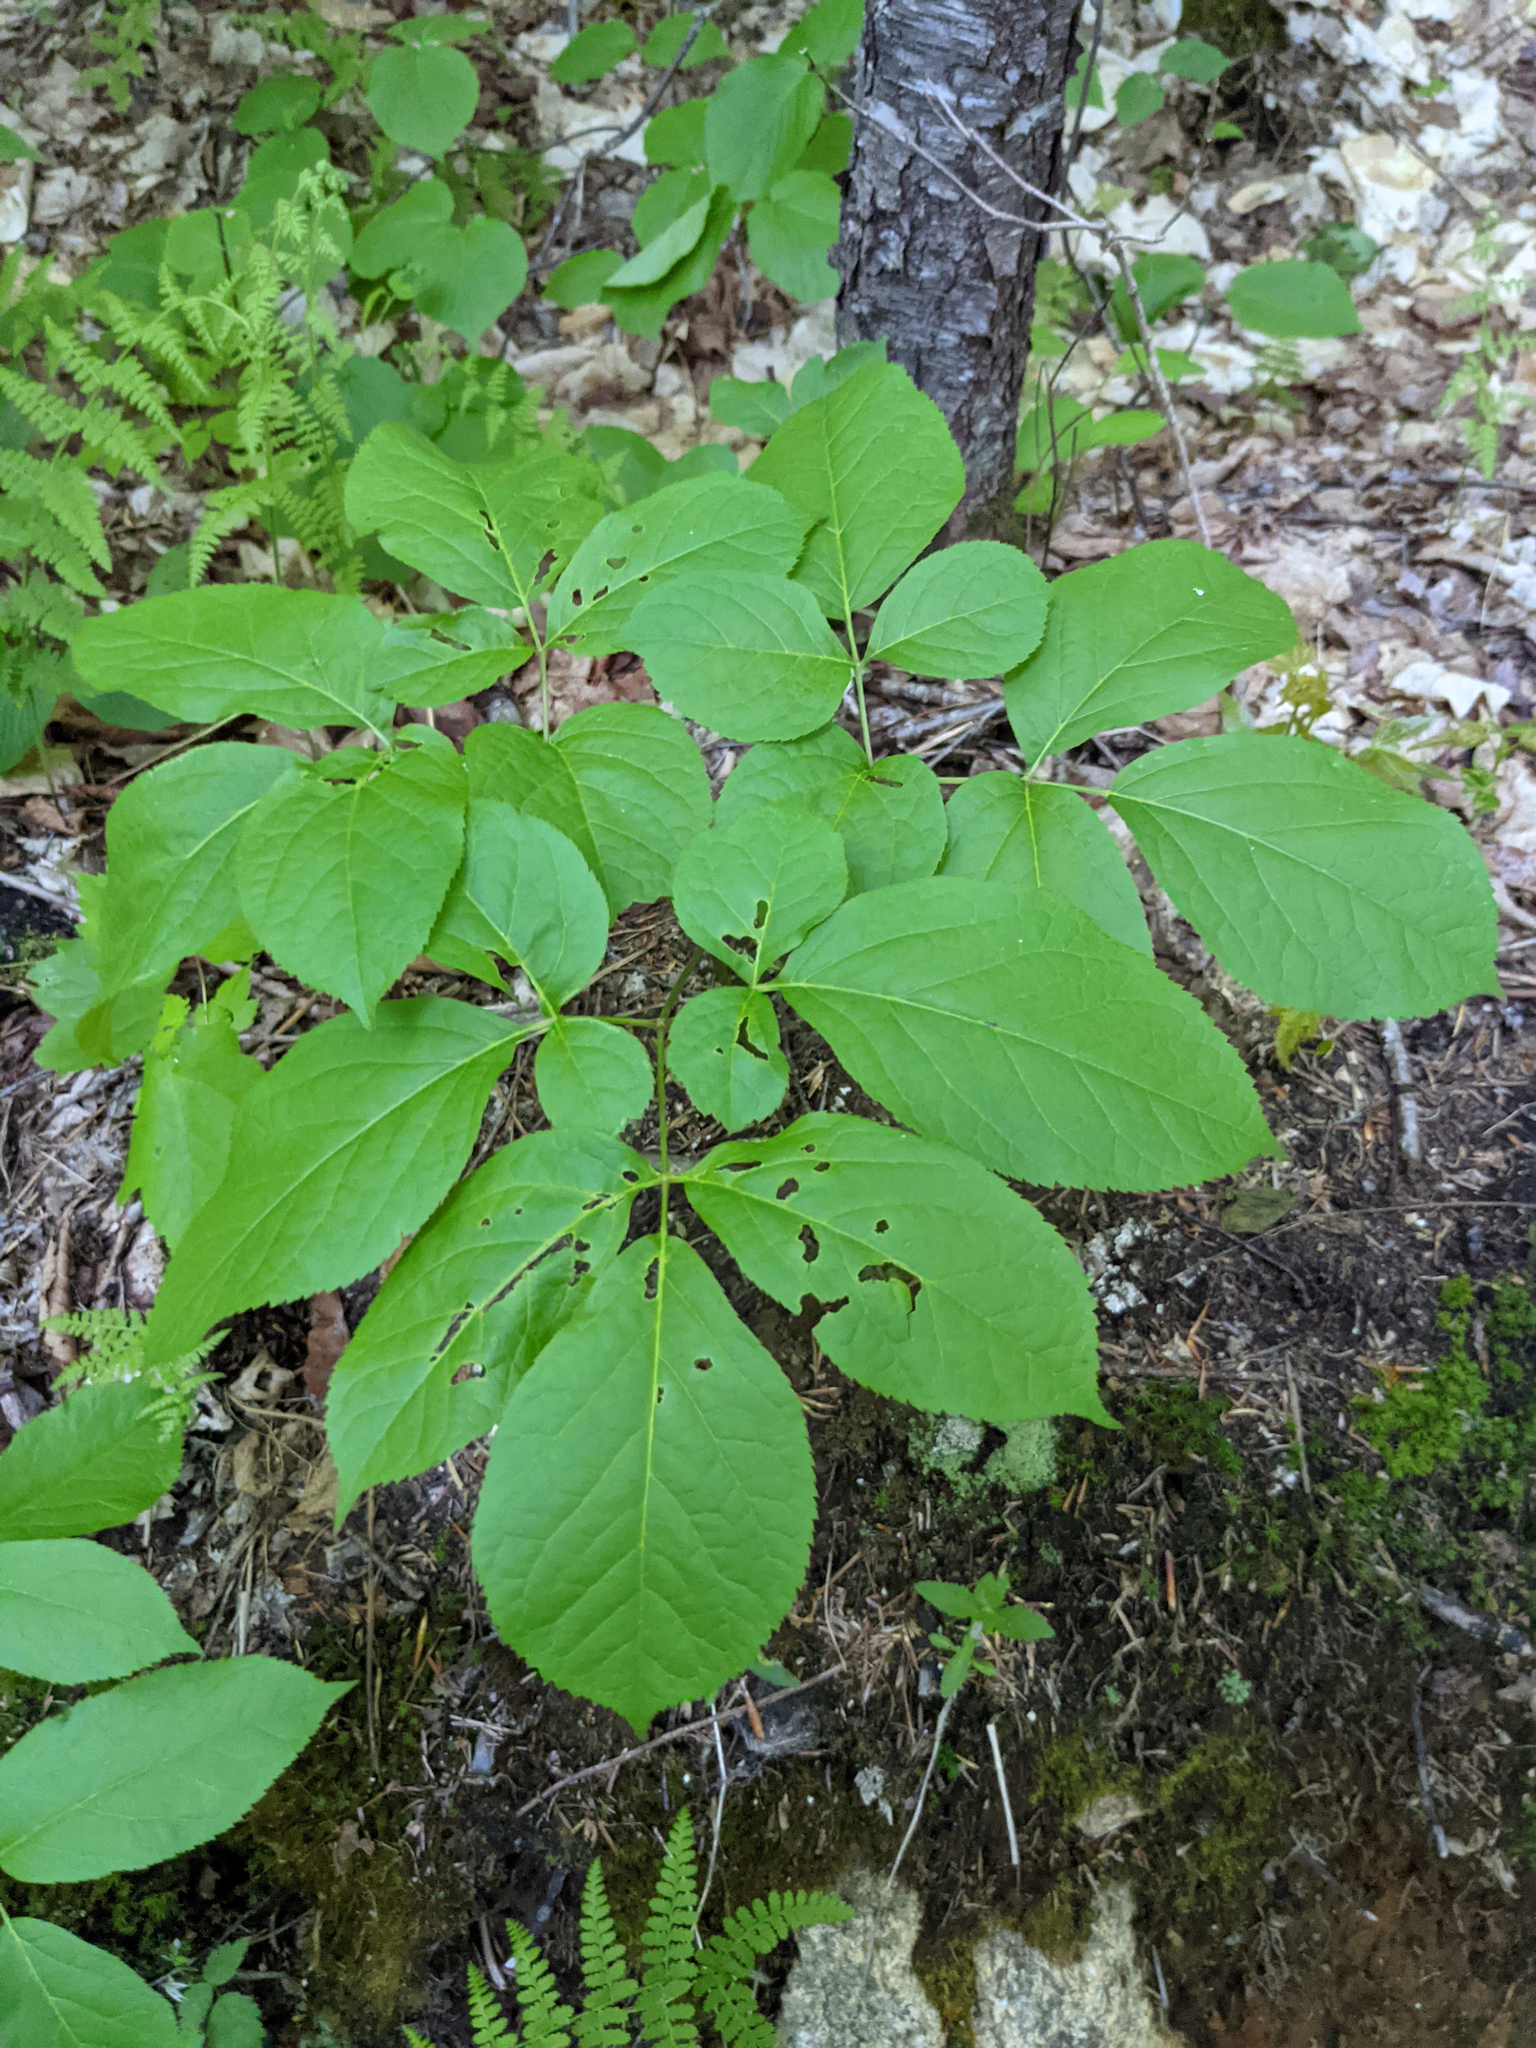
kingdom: Plantae
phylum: Tracheophyta
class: Magnoliopsida
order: Apiales
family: Araliaceae
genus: Aralia
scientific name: Aralia nudicaulis
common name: Wild sarsaparilla
